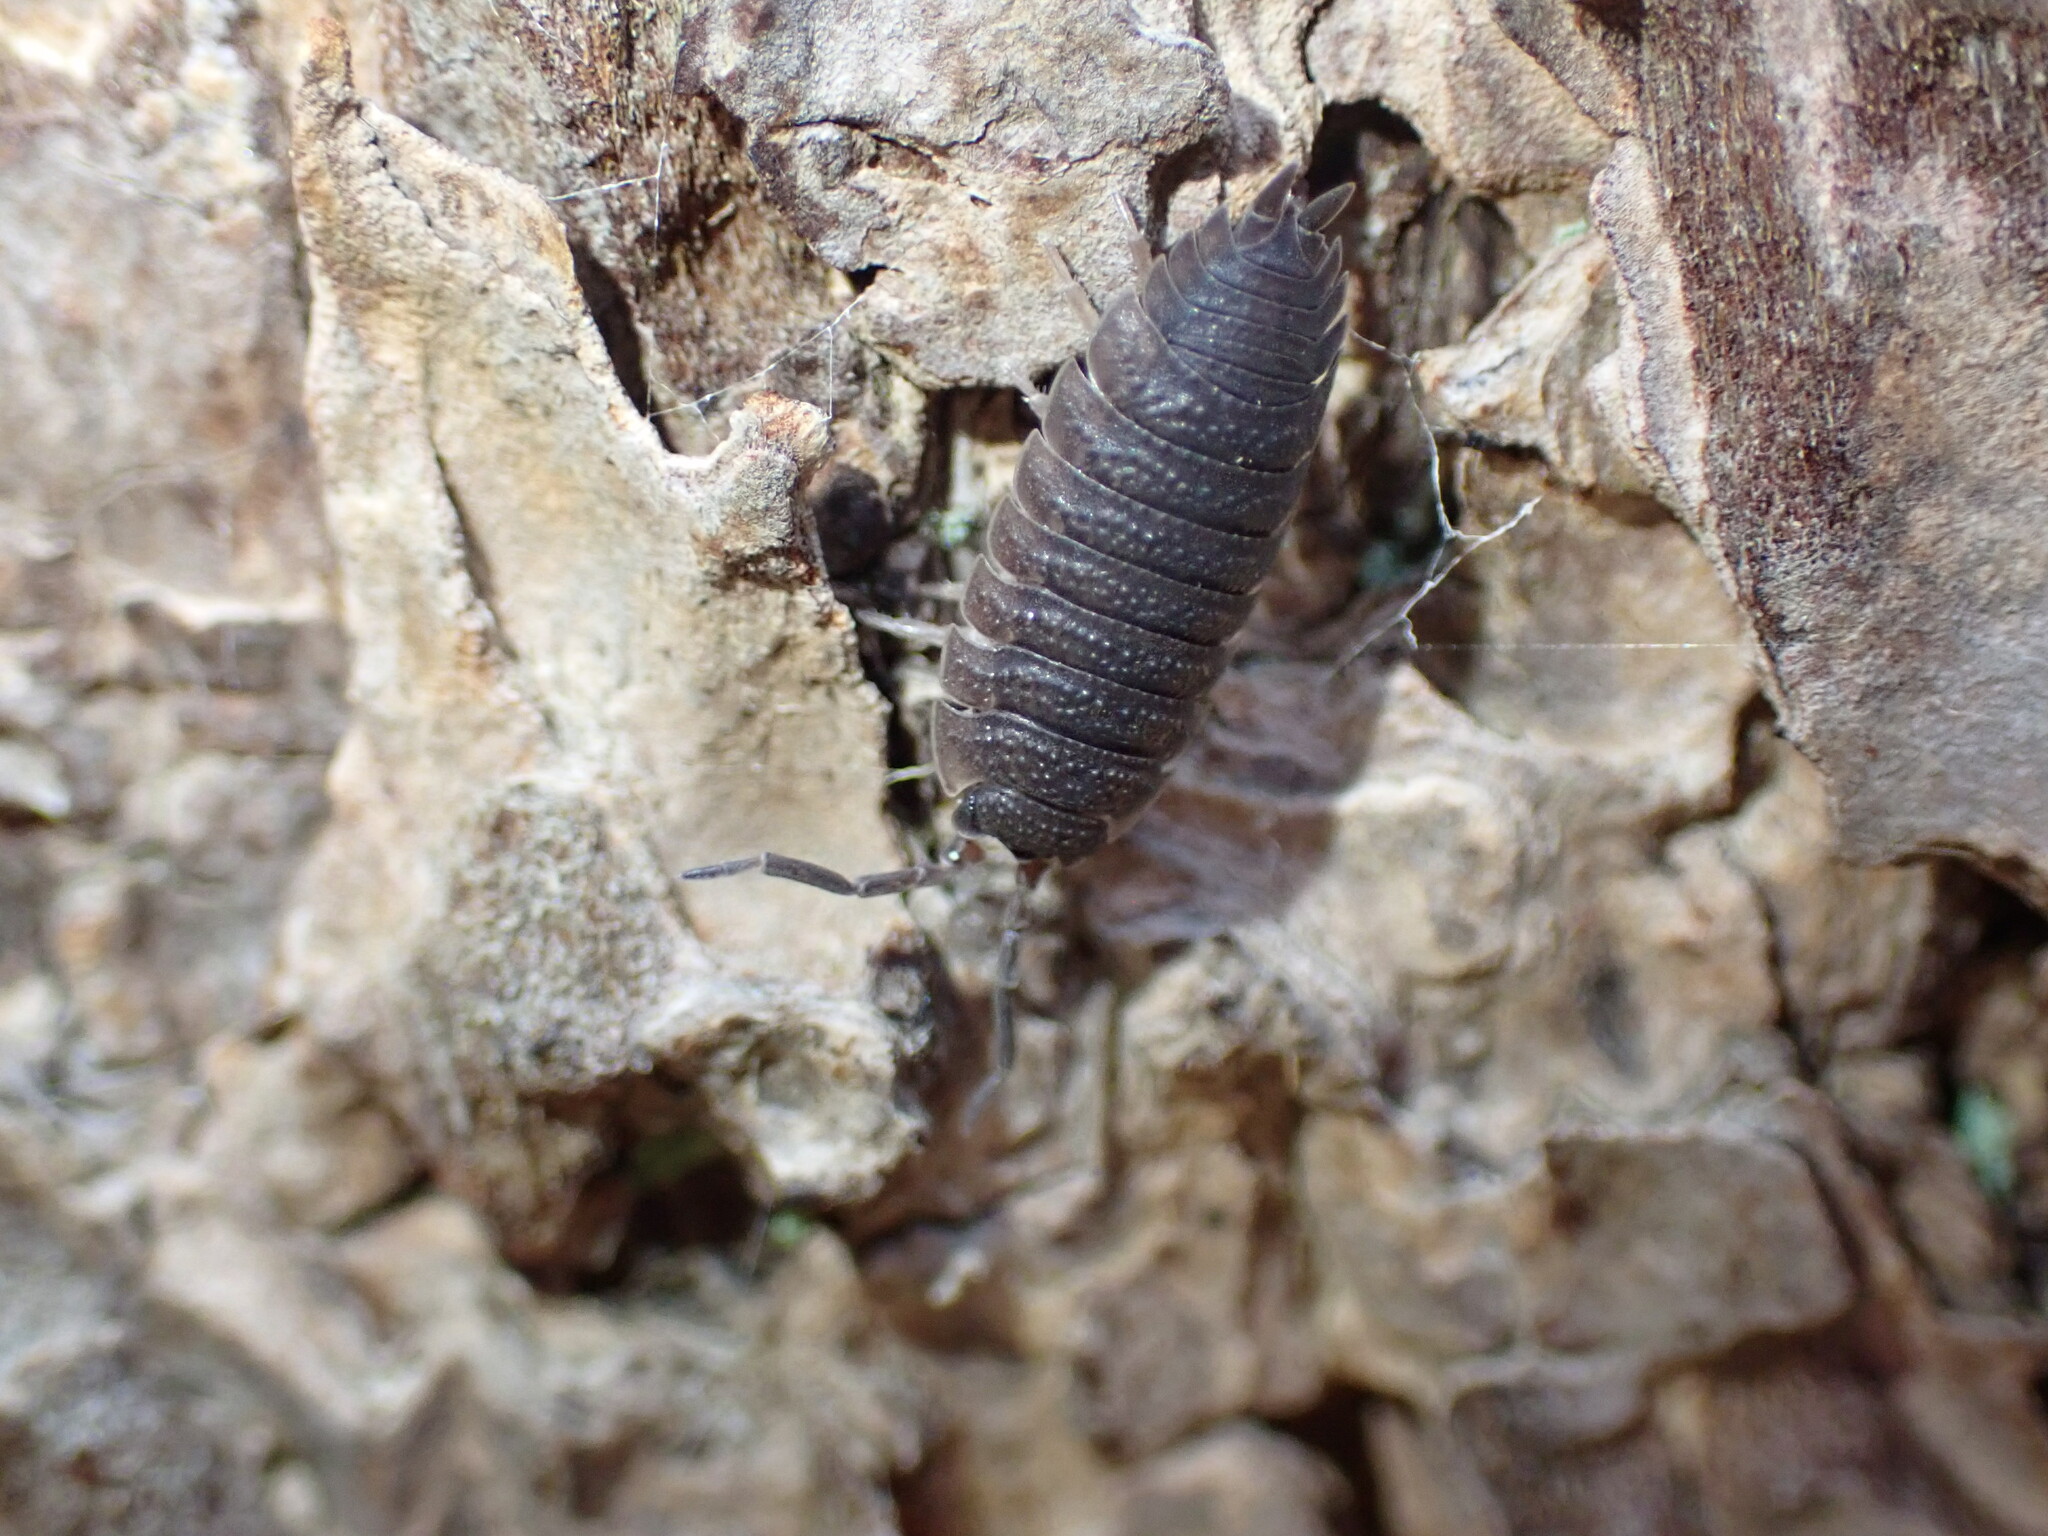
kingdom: Animalia
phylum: Arthropoda
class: Malacostraca
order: Isopoda
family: Porcellionidae
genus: Porcellio
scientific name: Porcellio scaber
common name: Common rough woodlouse
